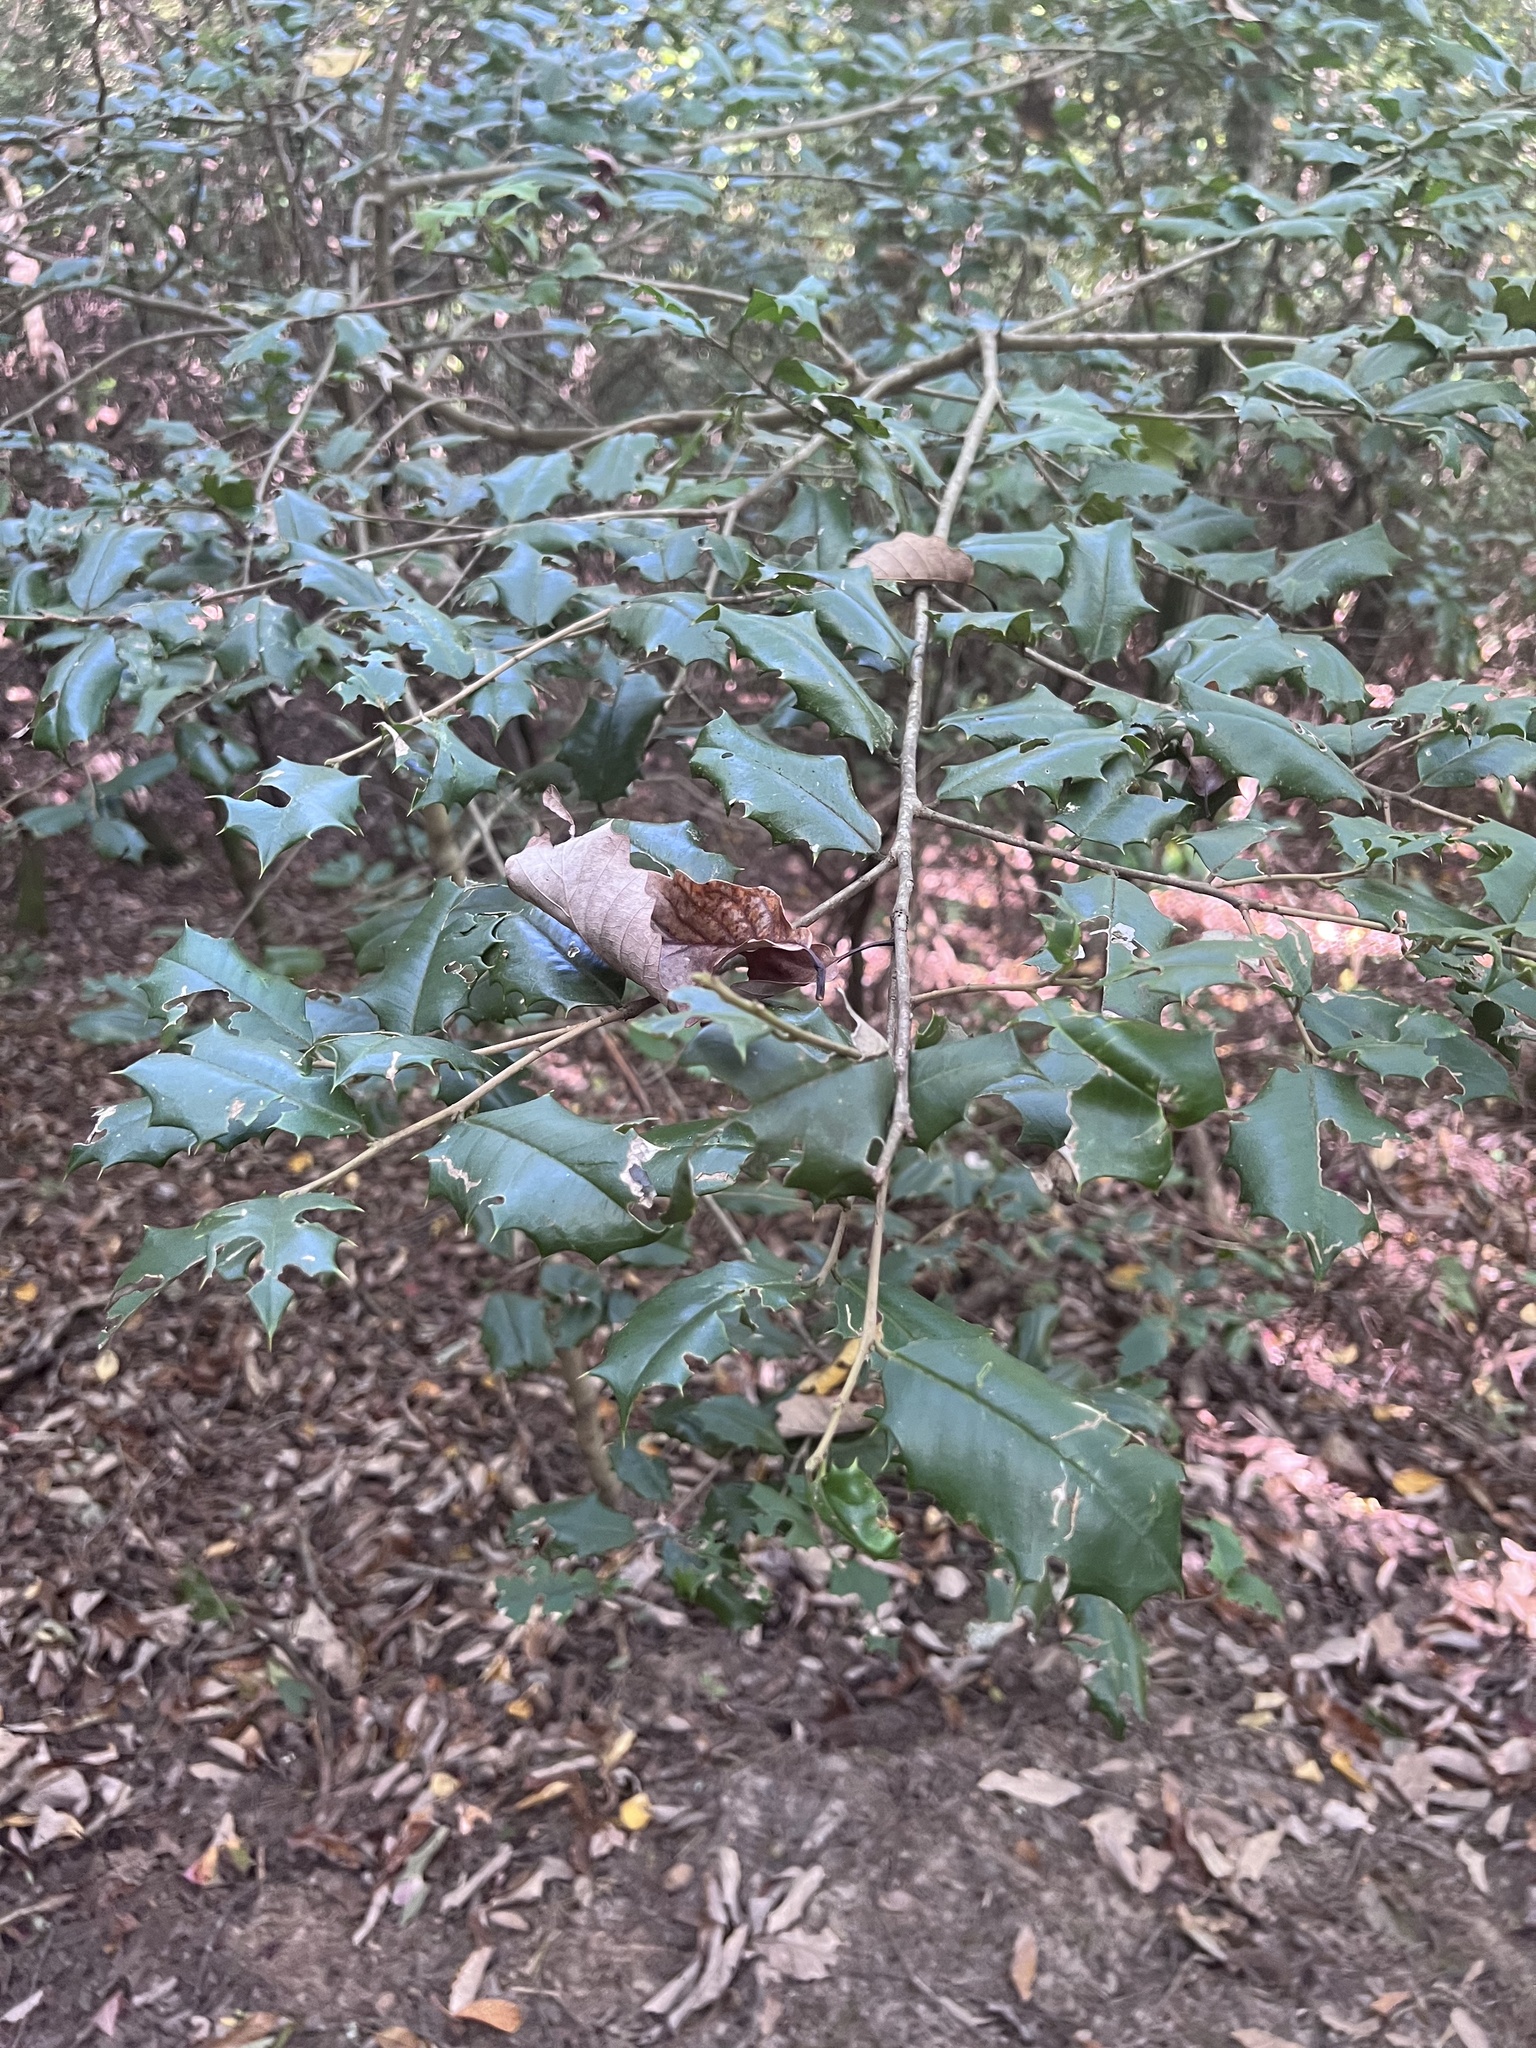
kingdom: Plantae
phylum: Tracheophyta
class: Magnoliopsida
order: Aquifoliales
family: Aquifoliaceae
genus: Ilex
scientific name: Ilex opaca
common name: American holly
